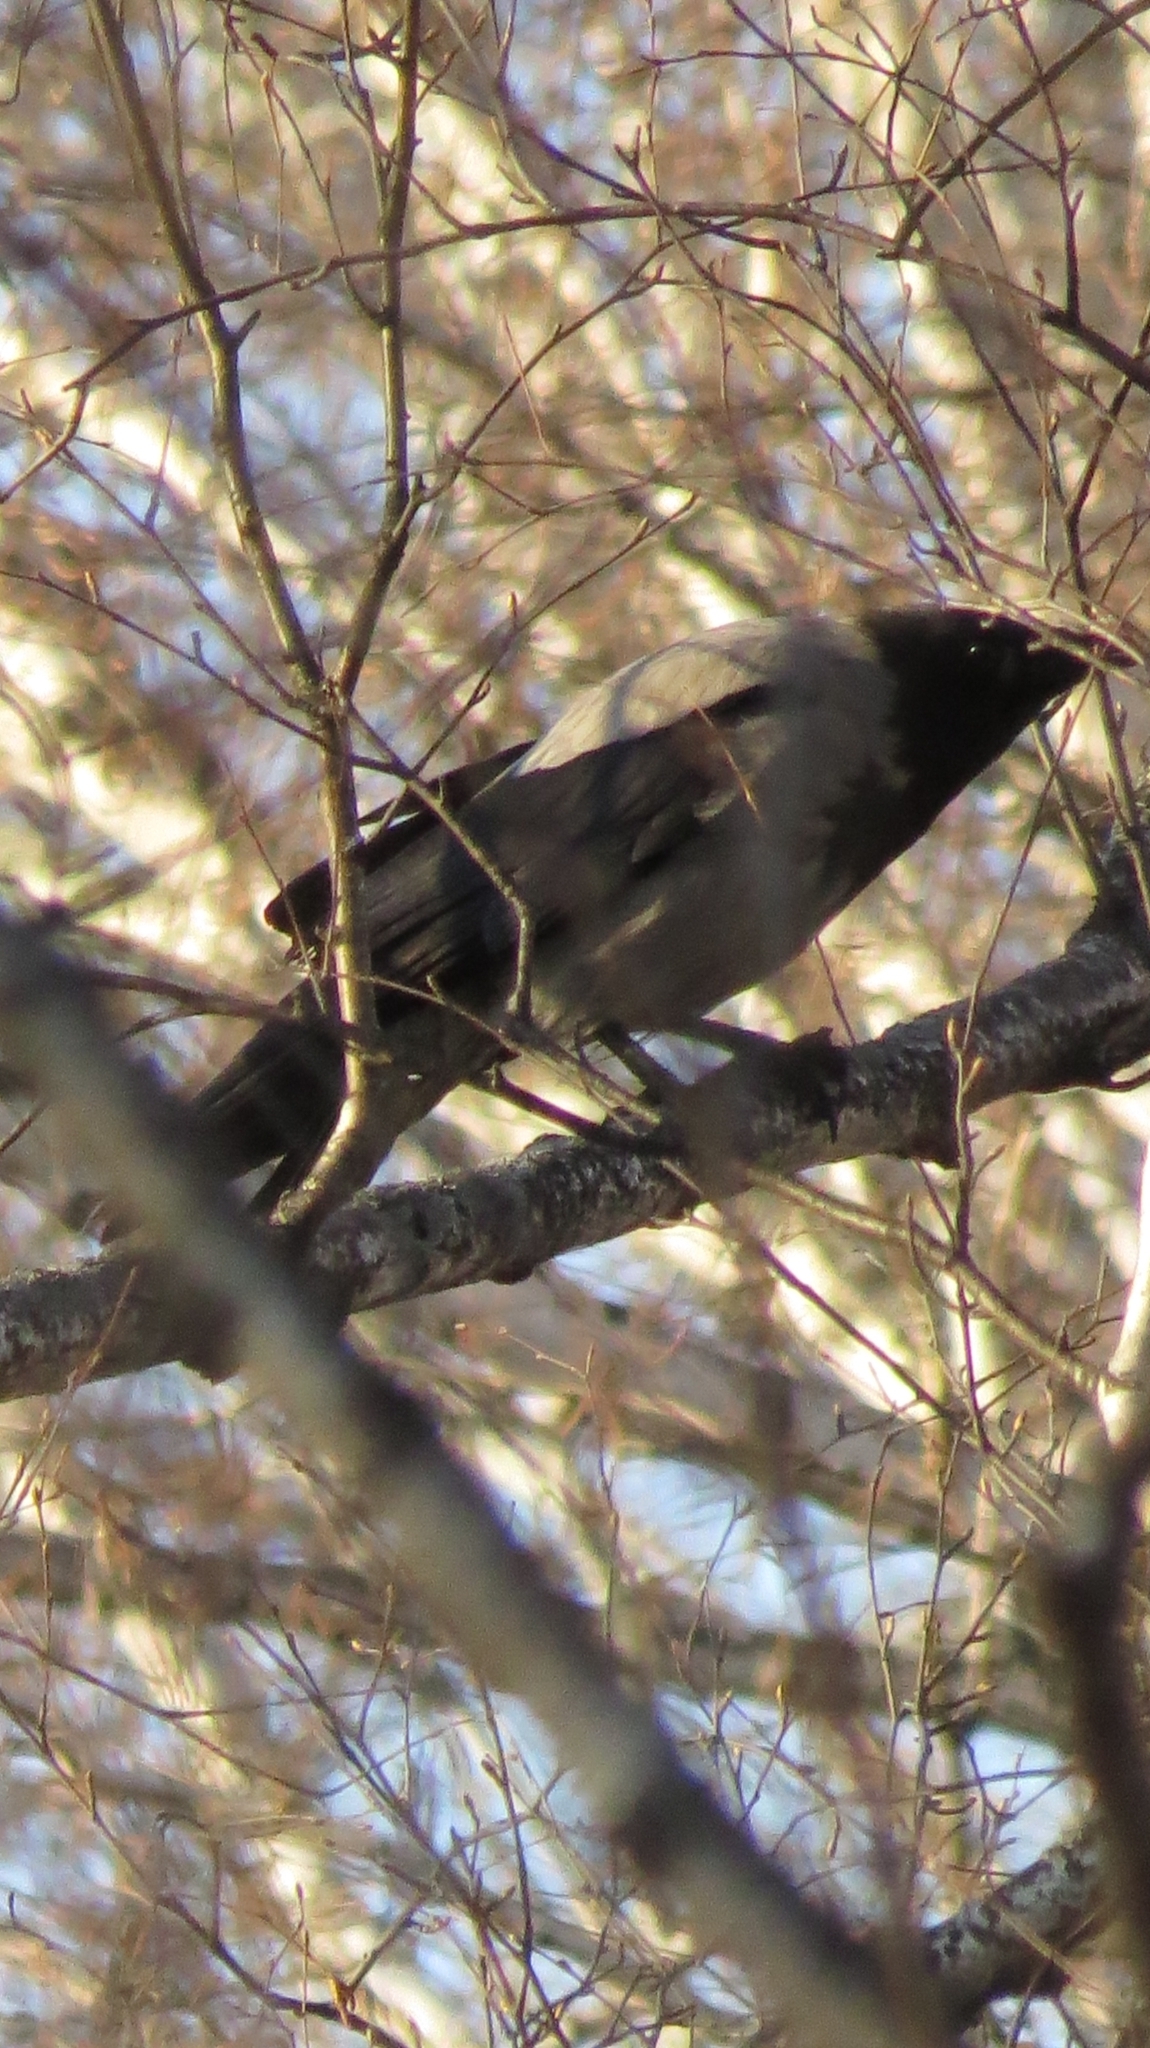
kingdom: Animalia
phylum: Chordata
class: Aves
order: Passeriformes
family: Corvidae
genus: Corvus
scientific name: Corvus cornix
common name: Hooded crow
